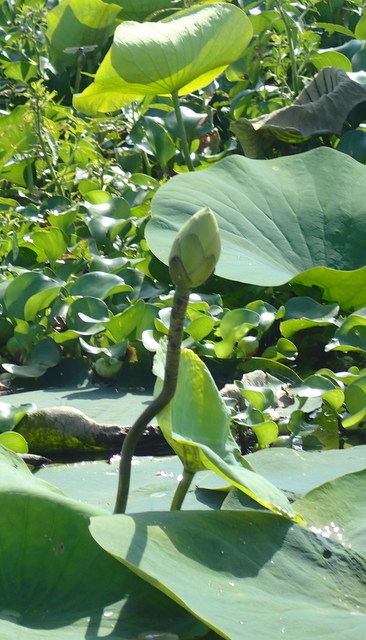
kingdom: Plantae
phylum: Tracheophyta
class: Magnoliopsida
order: Proteales
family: Nelumbonaceae
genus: Nelumbo
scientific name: Nelumbo lutea
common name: American lotus
